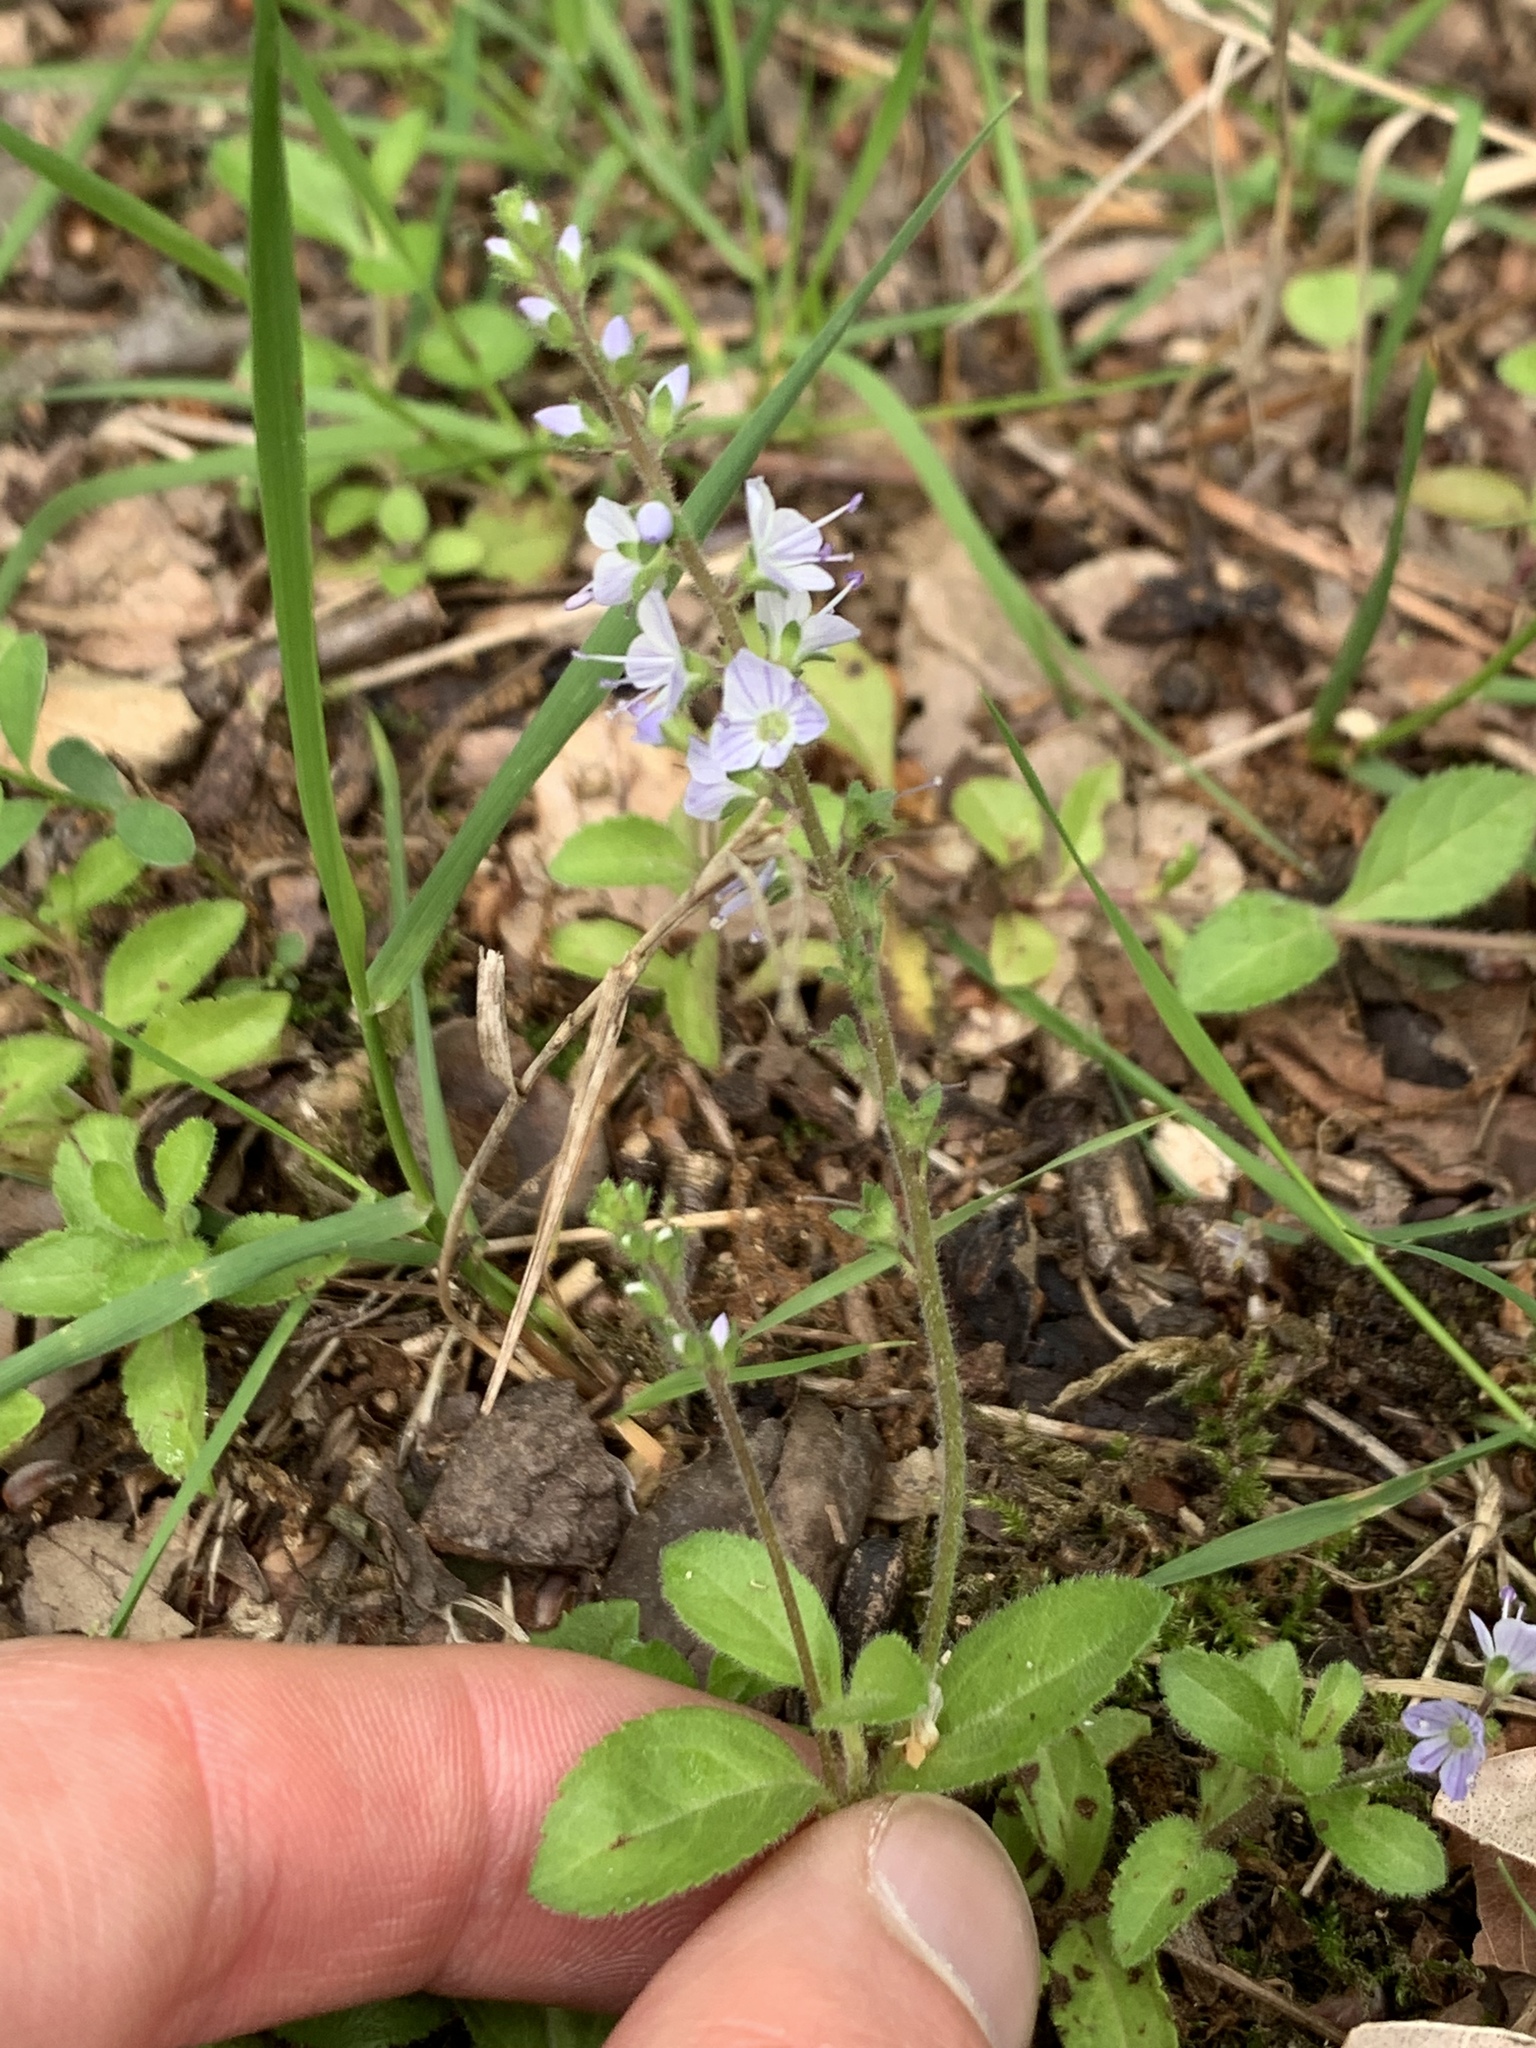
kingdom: Plantae
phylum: Tracheophyta
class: Magnoliopsida
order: Lamiales
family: Plantaginaceae
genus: Veronica
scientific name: Veronica officinalis
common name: Common speedwell
